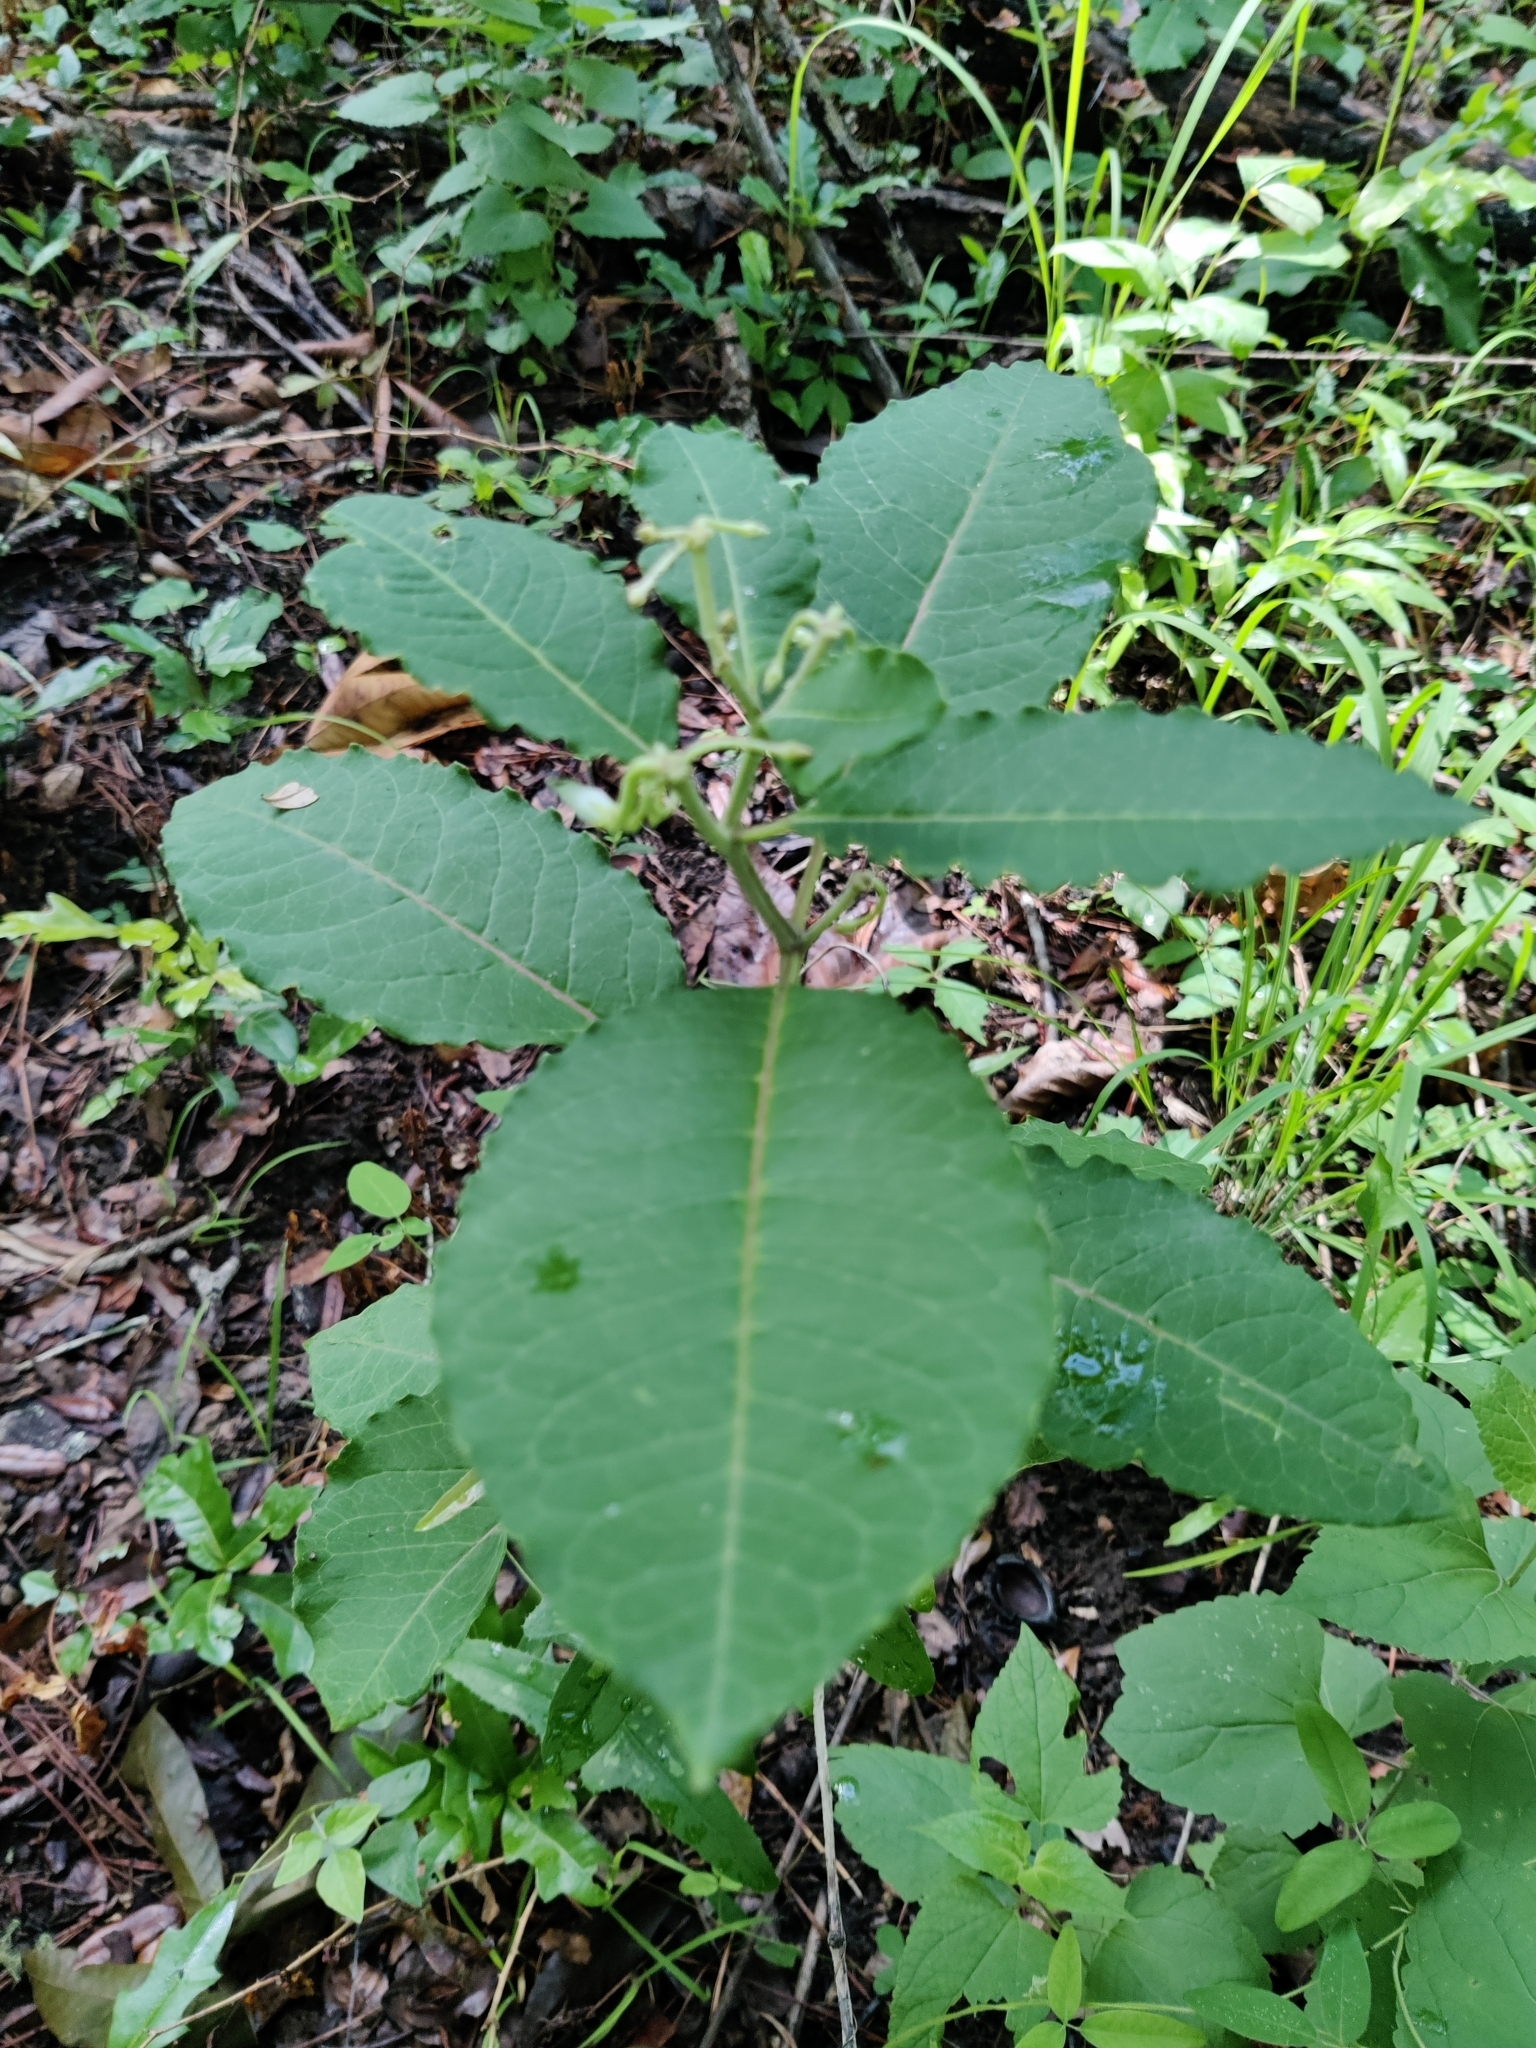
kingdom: Plantae
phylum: Tracheophyta
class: Magnoliopsida
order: Gentianales
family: Apocynaceae
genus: Asclepias
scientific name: Asclepias variegata
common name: Variegated milkweed
